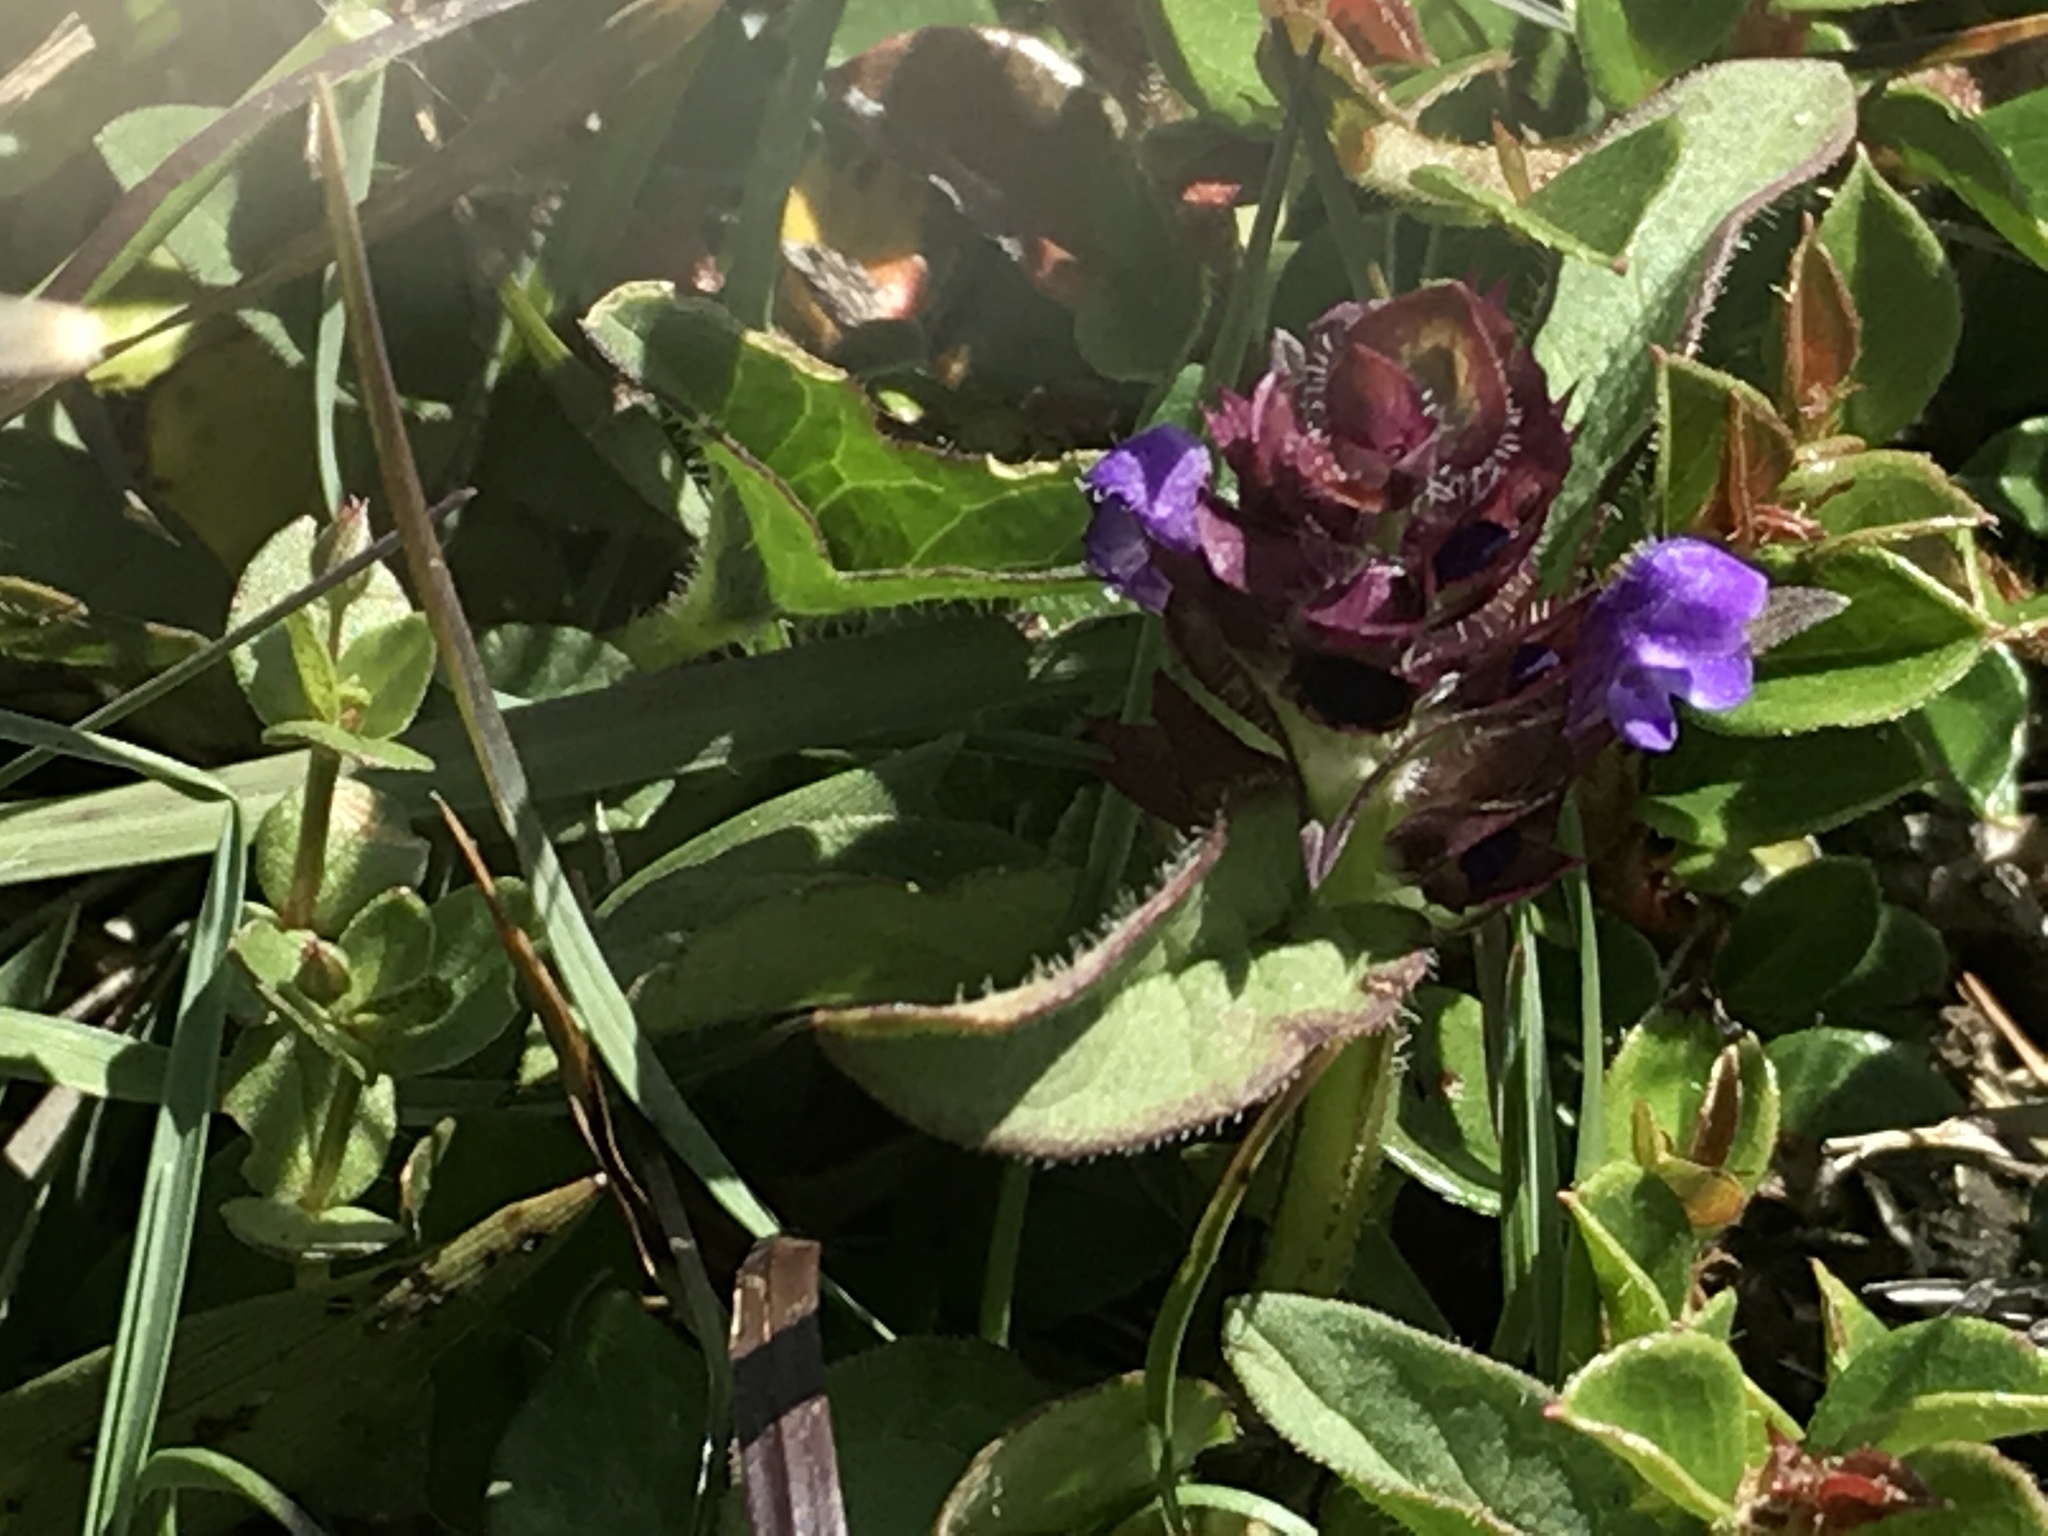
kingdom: Plantae
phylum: Tracheophyta
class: Magnoliopsida
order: Lamiales
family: Lamiaceae
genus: Prunella
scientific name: Prunella vulgaris
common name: Heal-all
